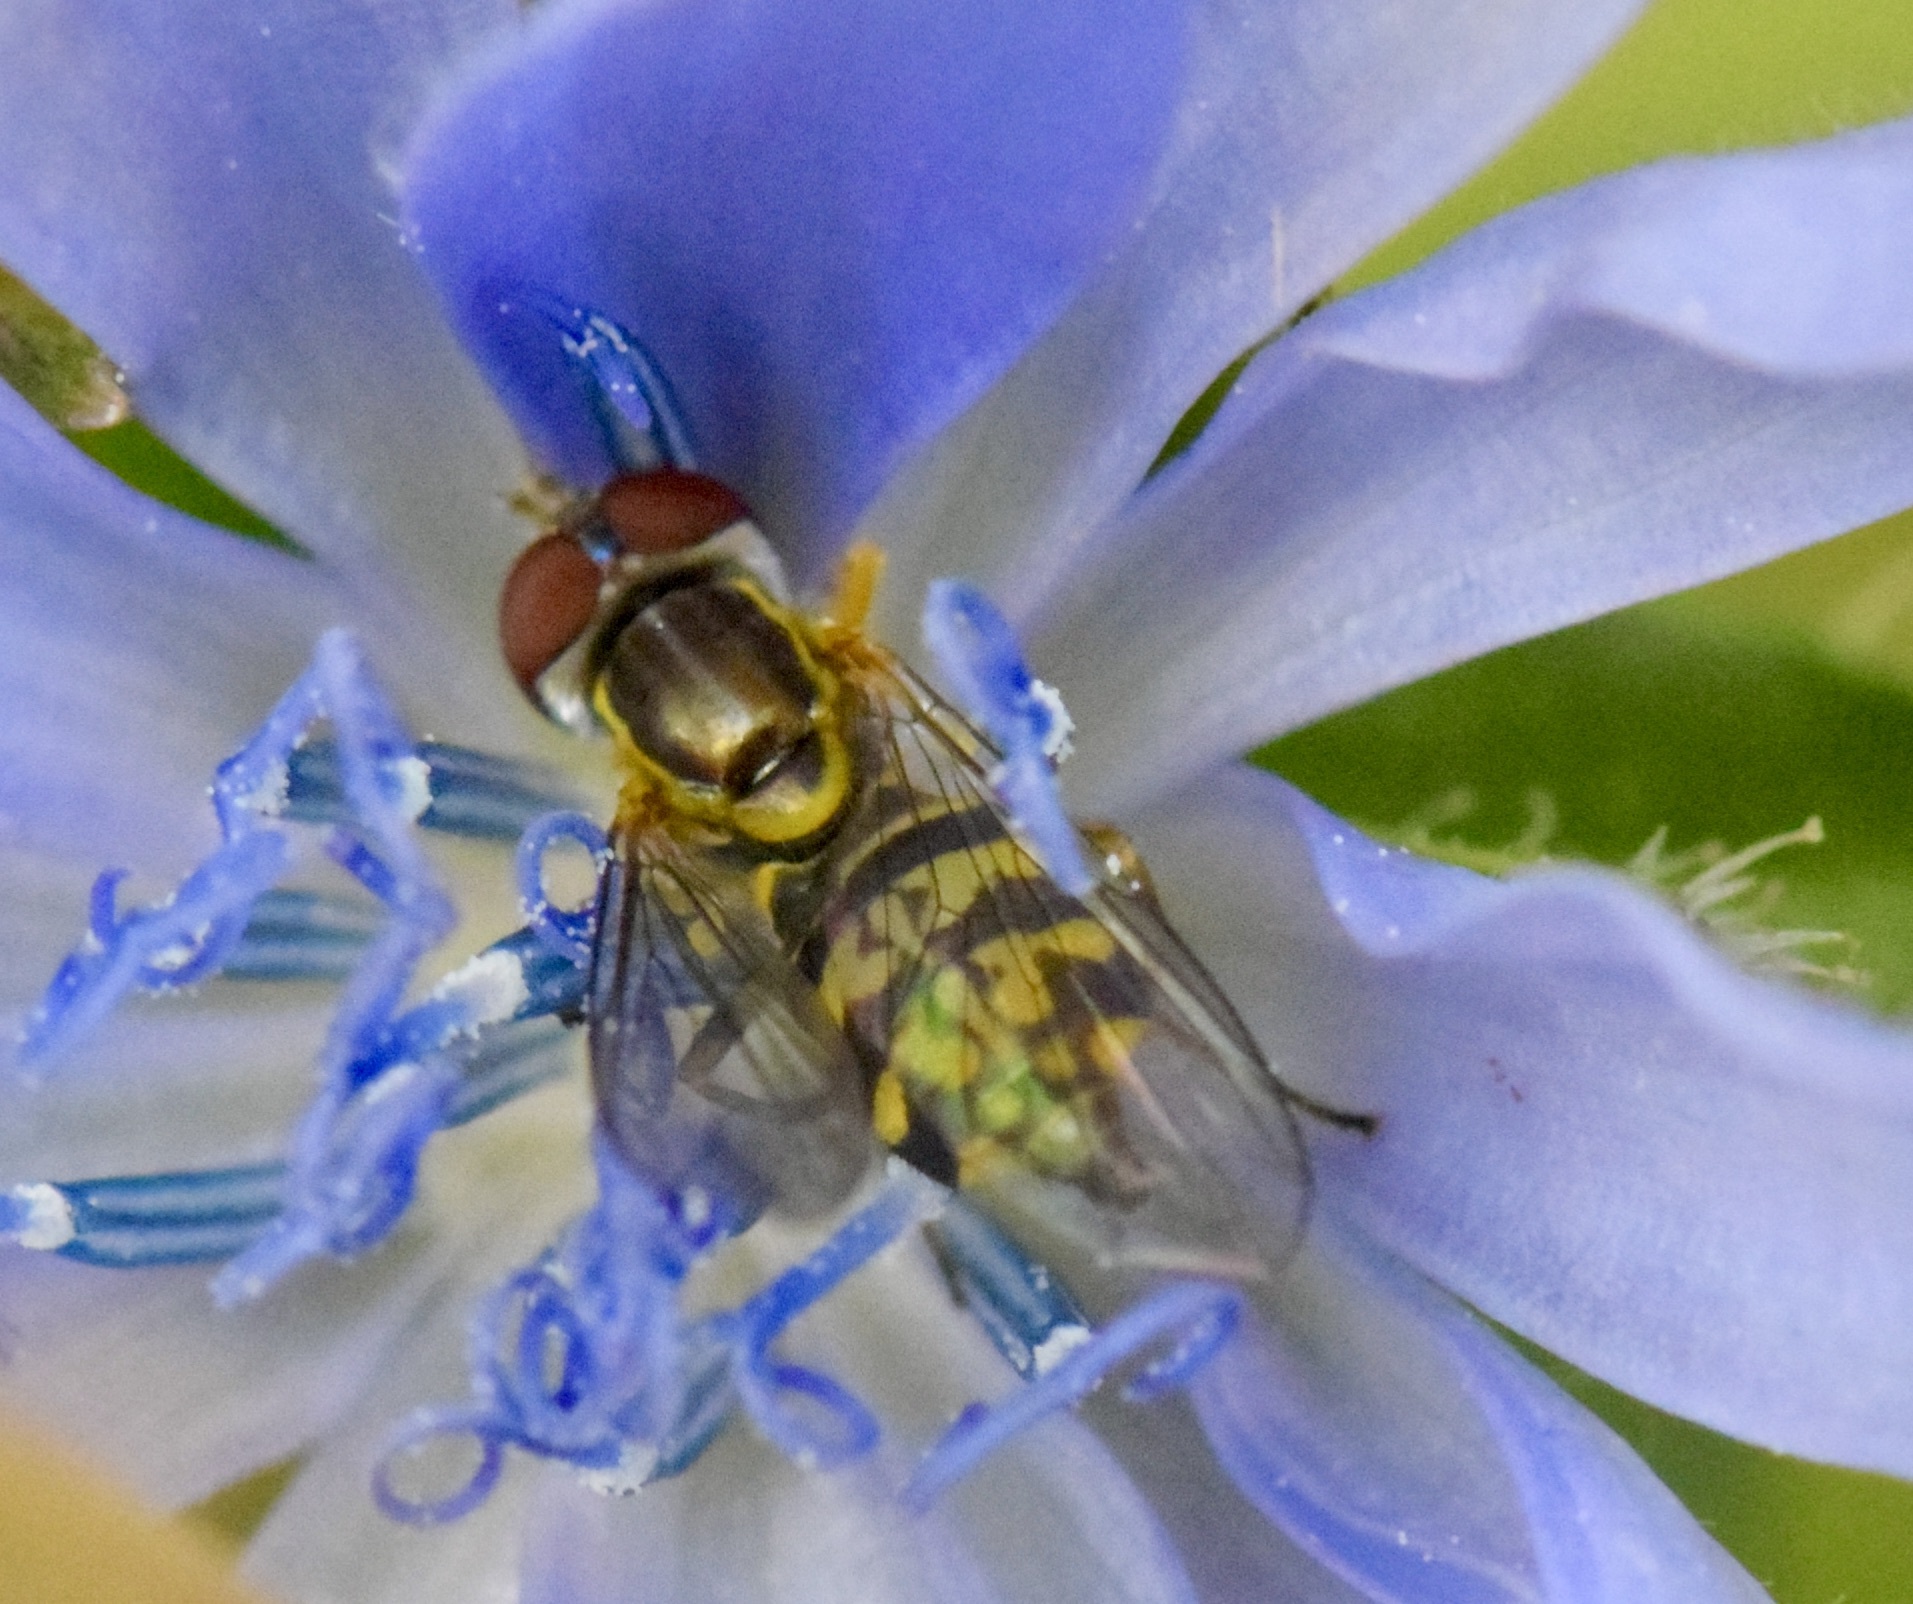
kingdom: Animalia
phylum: Arthropoda
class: Insecta
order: Diptera
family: Syrphidae
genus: Toxomerus
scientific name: Toxomerus geminatus
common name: Eastern calligrapher
